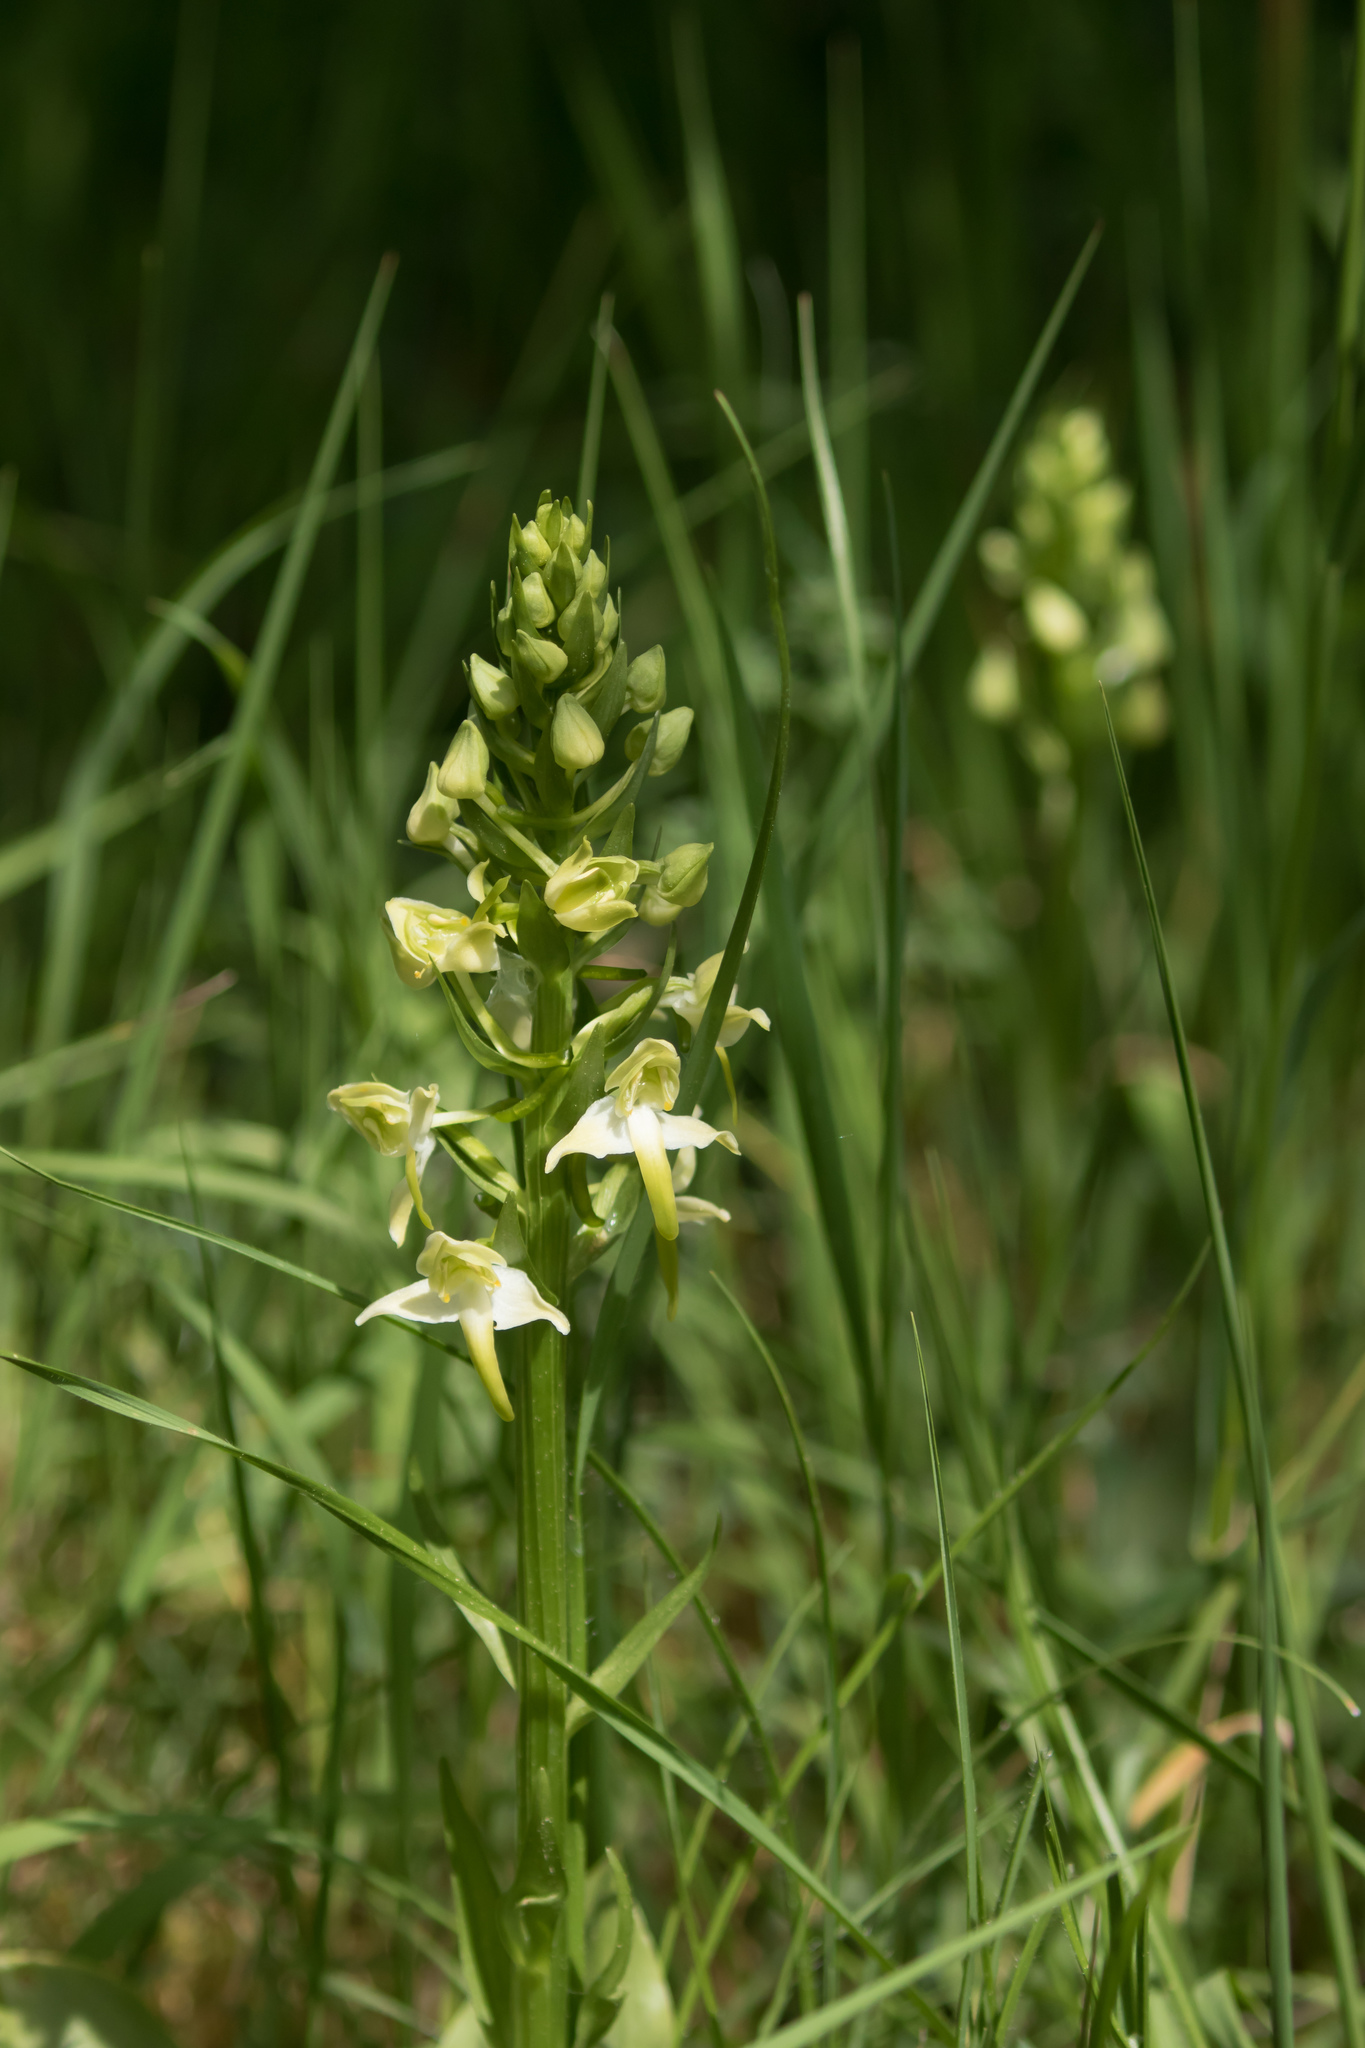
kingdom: Plantae
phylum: Tracheophyta
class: Liliopsida
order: Asparagales
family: Orchidaceae
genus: Platanthera
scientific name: Platanthera chlorantha
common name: Greater butterfly-orchid
